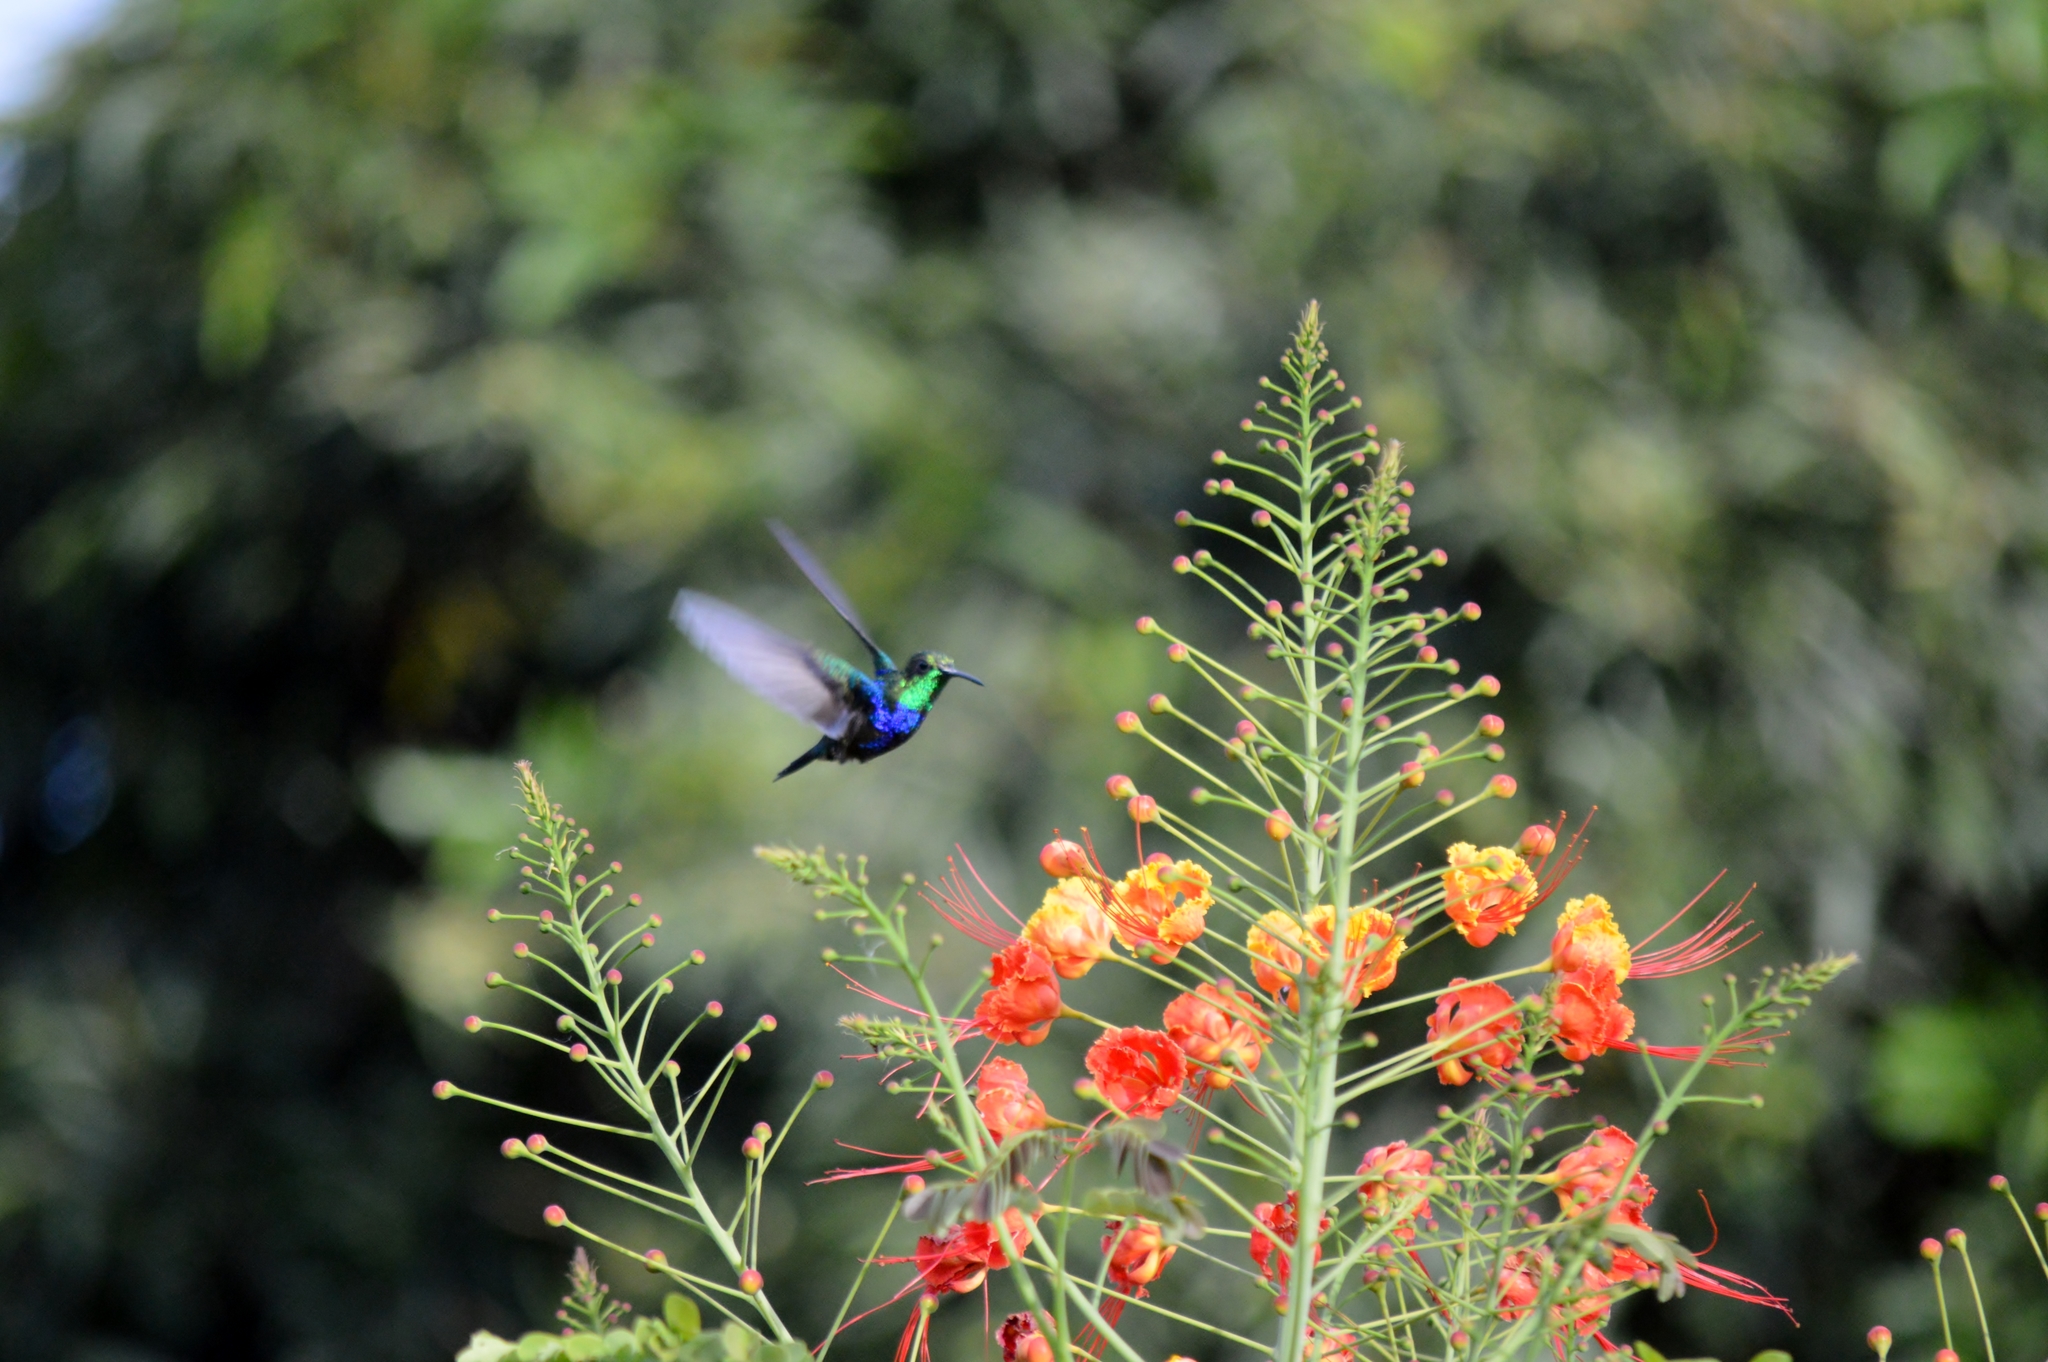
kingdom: Animalia
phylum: Chordata
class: Aves
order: Apodiformes
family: Trochilidae
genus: Thalurania
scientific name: Thalurania furcata
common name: Fork-tailed woodnymph
